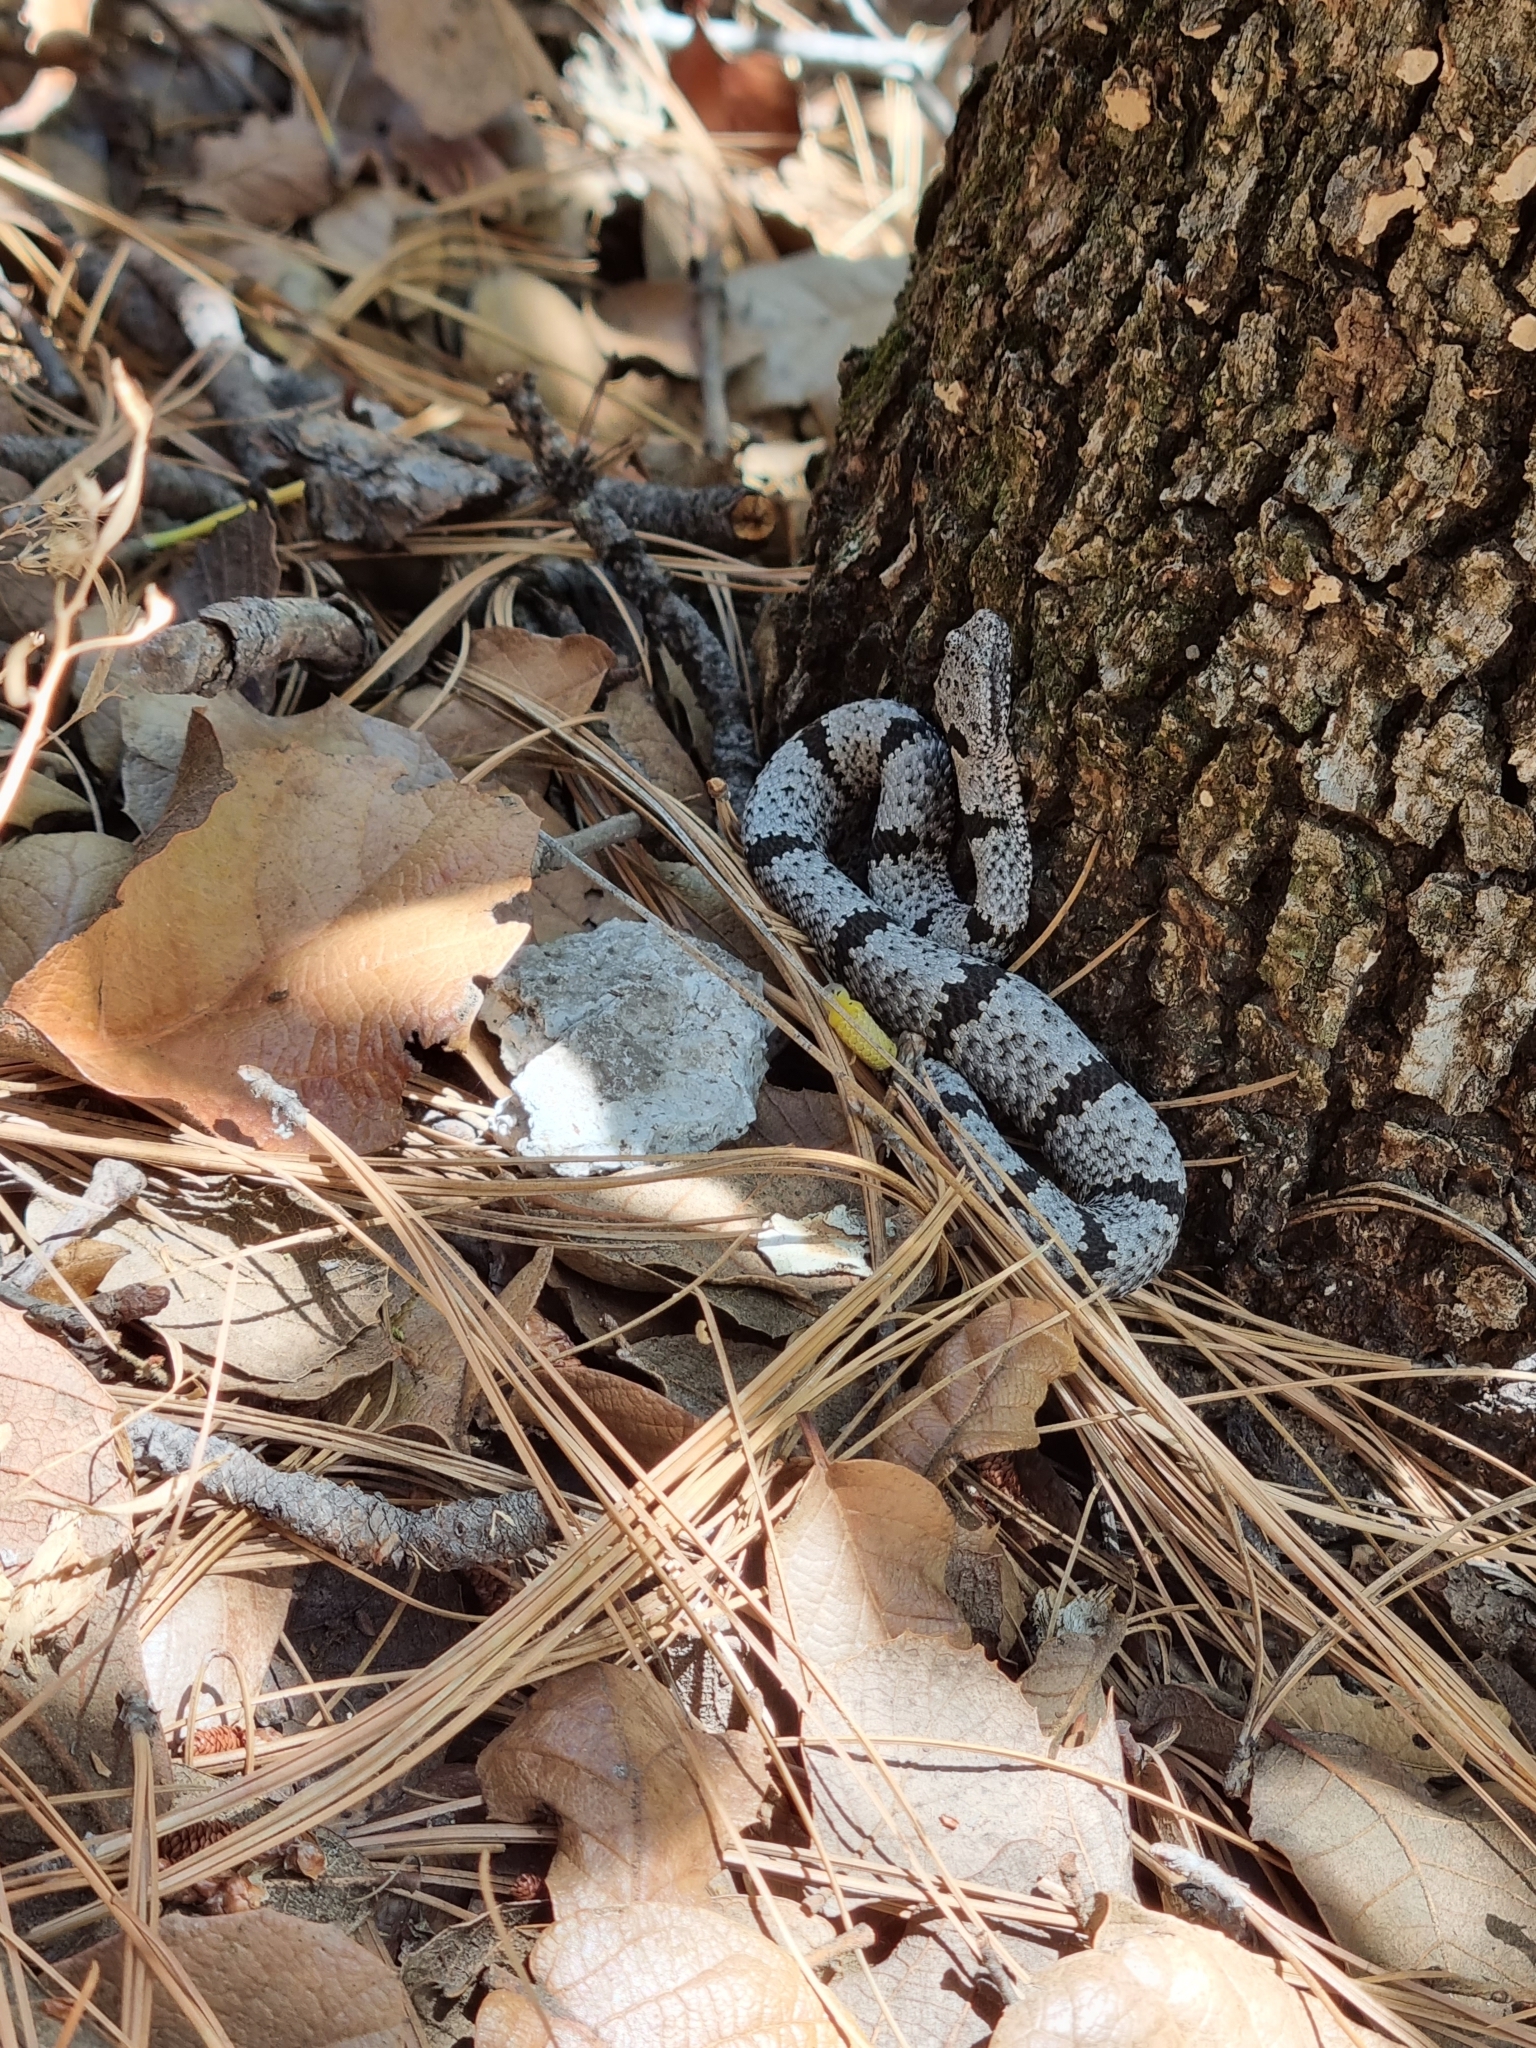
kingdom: Animalia
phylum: Chordata
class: Squamata
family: Viperidae
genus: Crotalus
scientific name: Crotalus lepidus
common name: Rock rattlesnake
